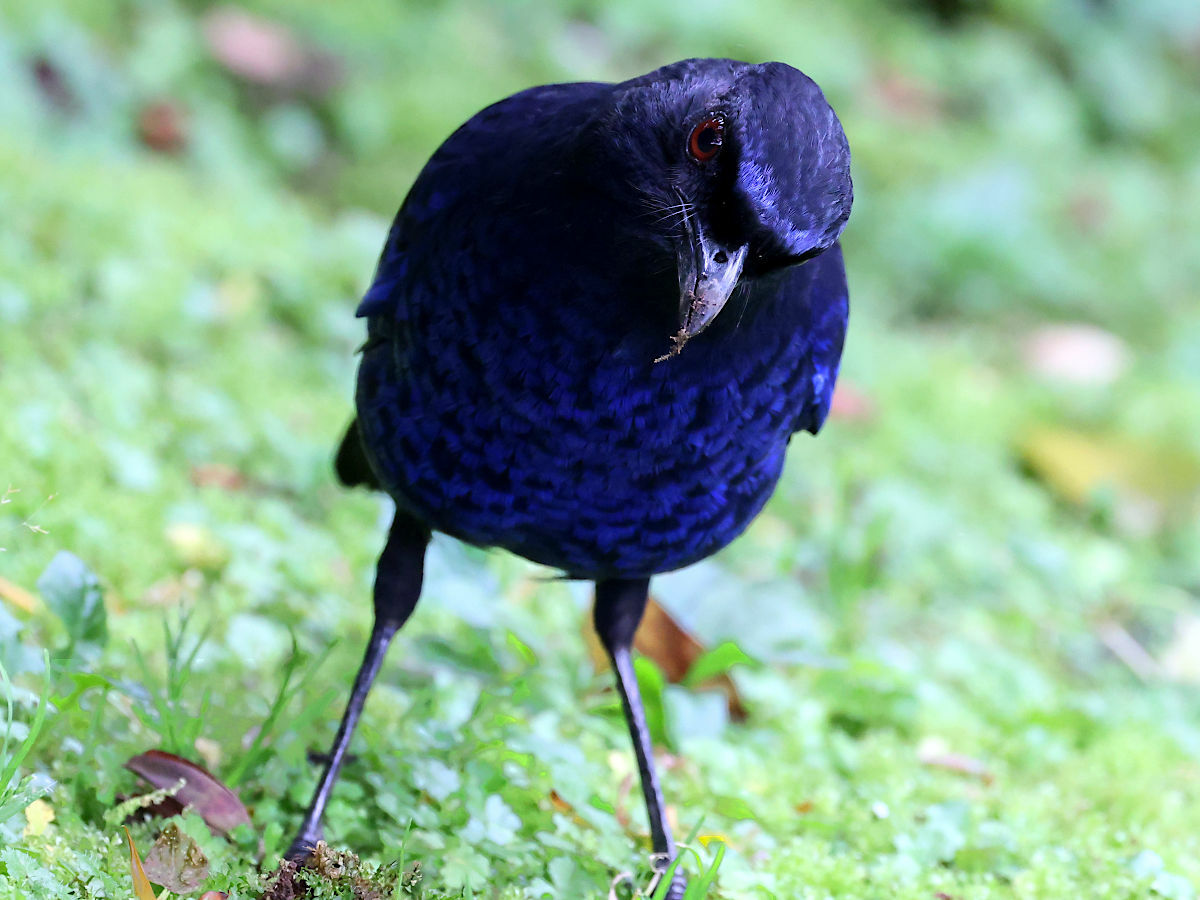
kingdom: Animalia
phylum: Chordata
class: Aves
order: Passeriformes
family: Muscicapidae
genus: Myophonus
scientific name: Myophonus insularis
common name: Taiwan whistling-thrush
